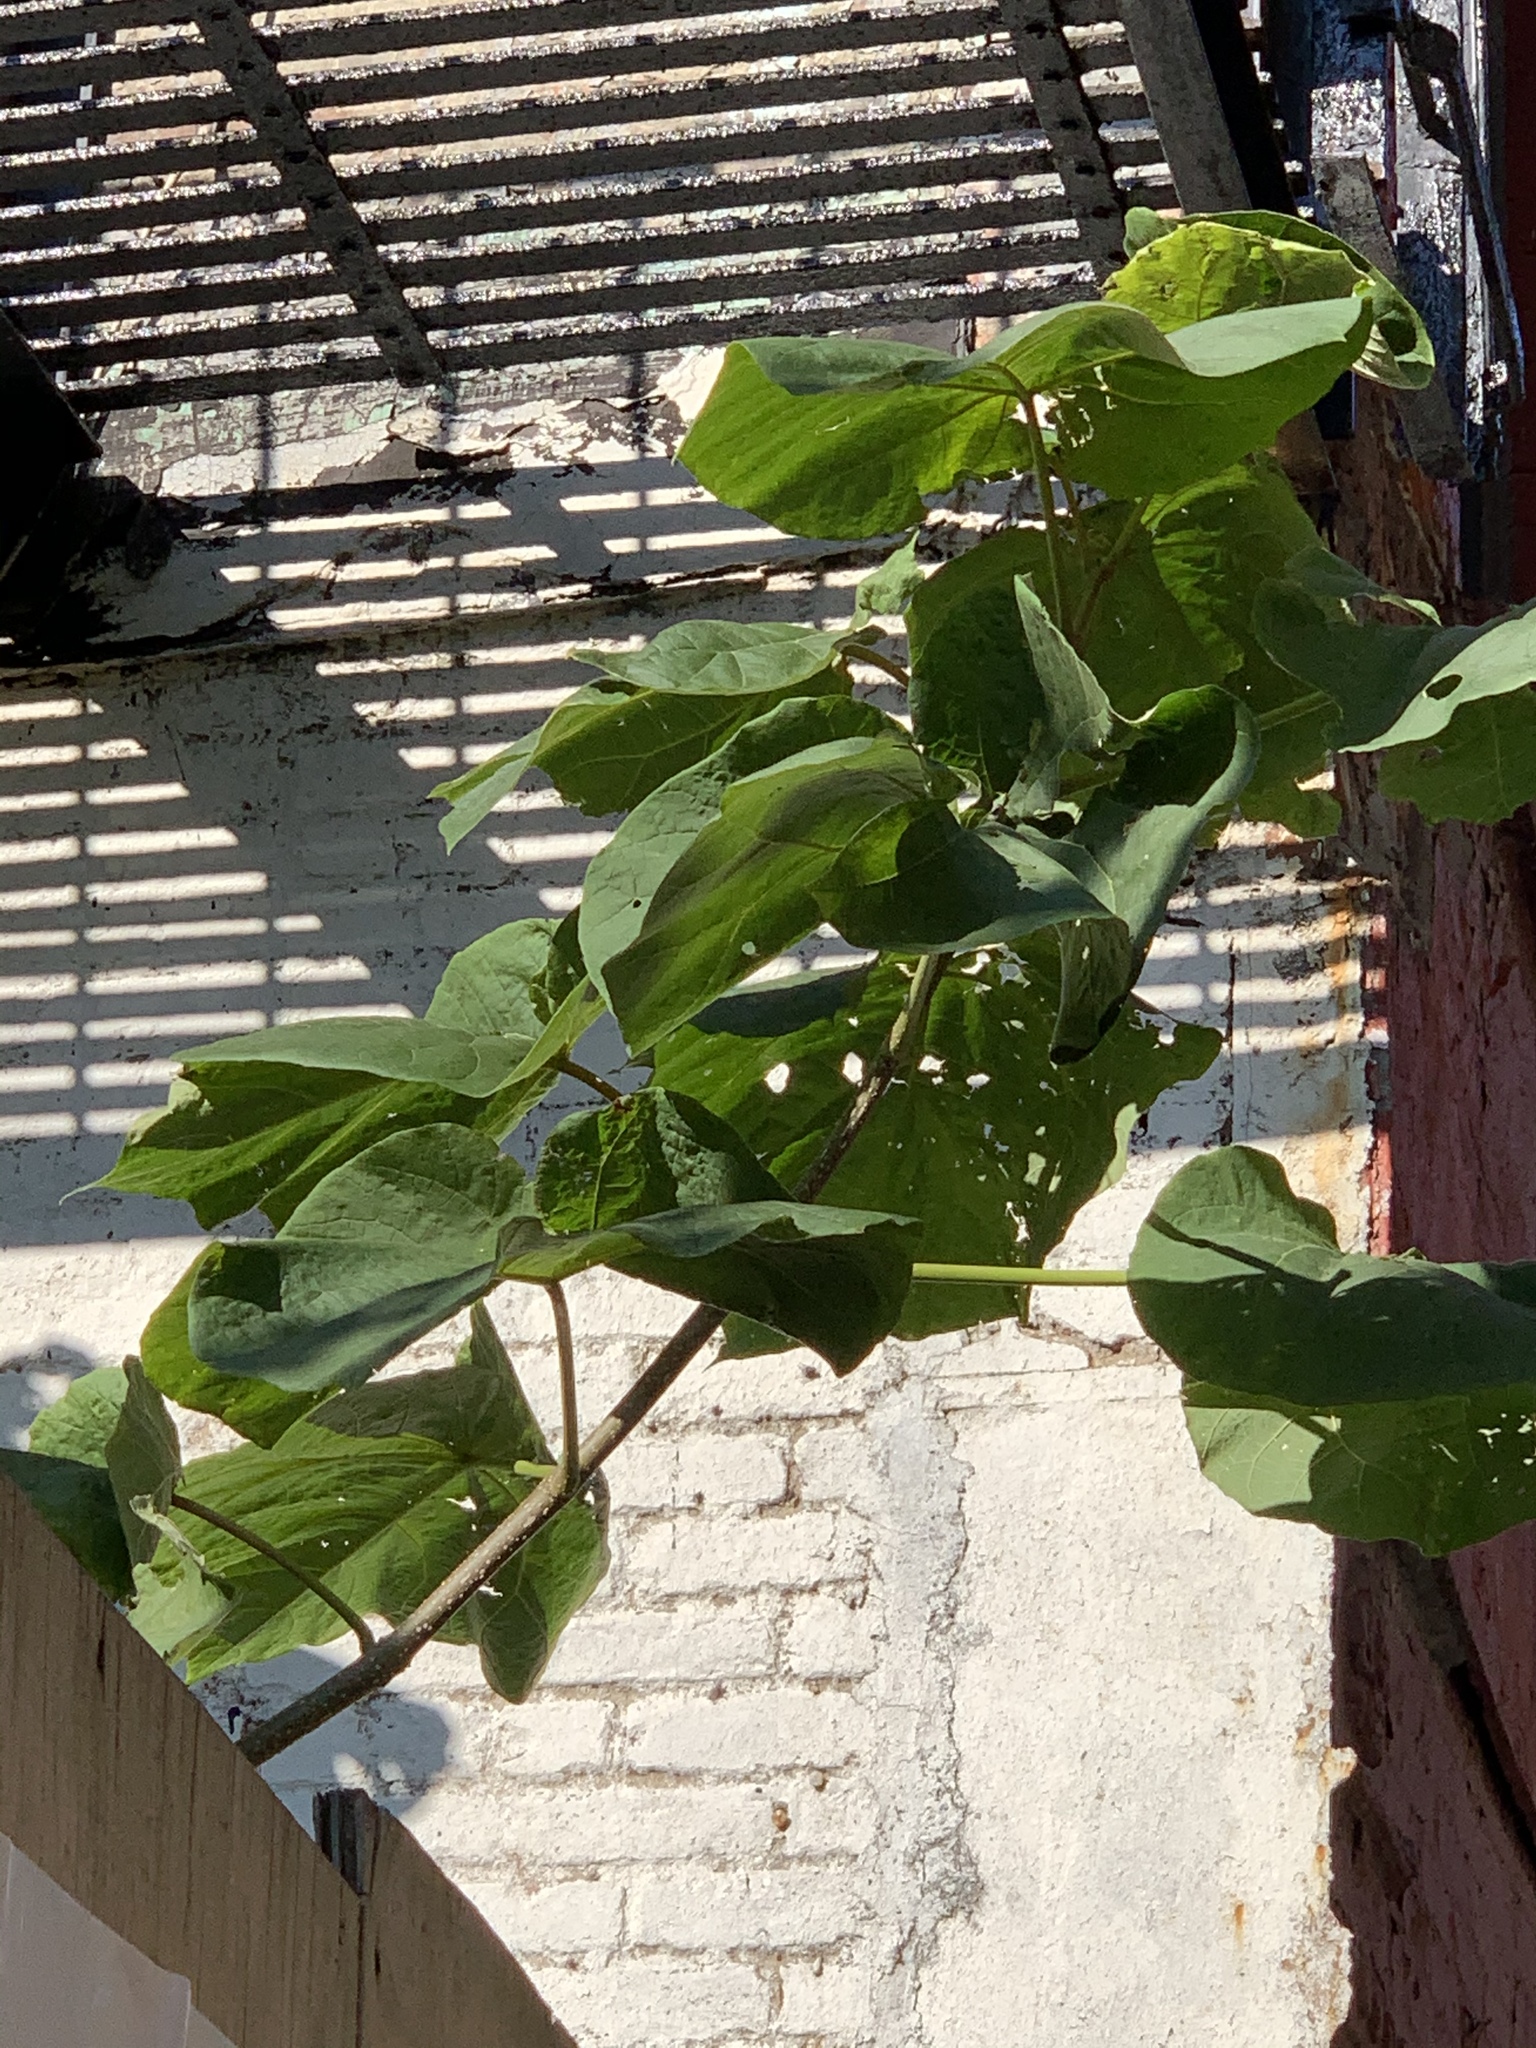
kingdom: Plantae
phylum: Tracheophyta
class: Magnoliopsida
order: Lamiales
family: Paulowniaceae
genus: Paulownia
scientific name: Paulownia tomentosa
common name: Foxglove-tree
